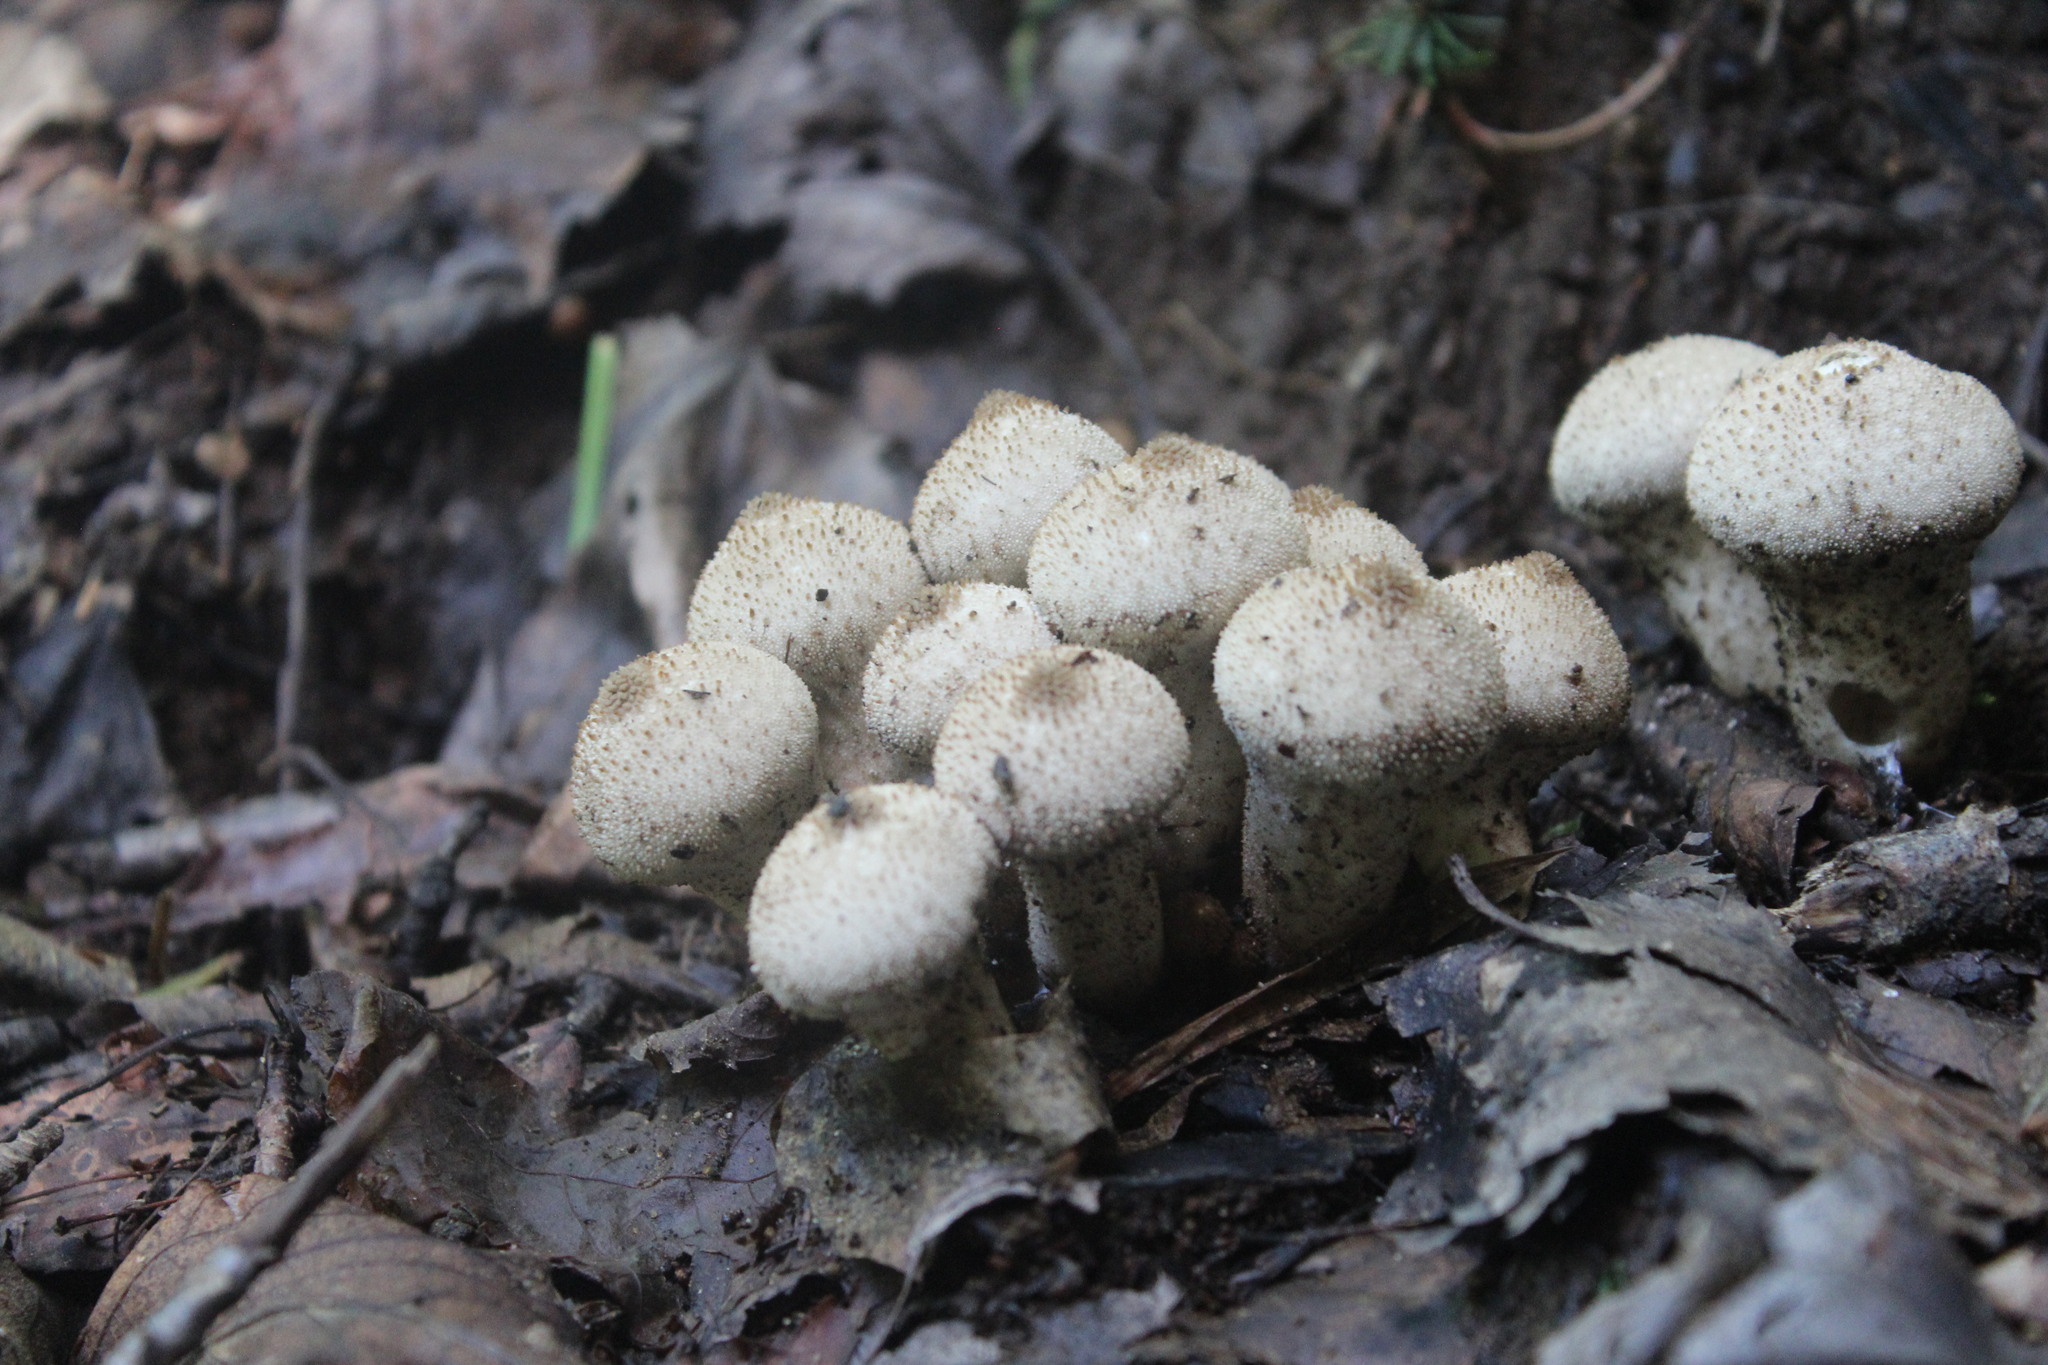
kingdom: Fungi
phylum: Basidiomycota
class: Agaricomycetes
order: Agaricales
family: Lycoperdaceae
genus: Lycoperdon
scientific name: Lycoperdon perlatum
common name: Common puffball
